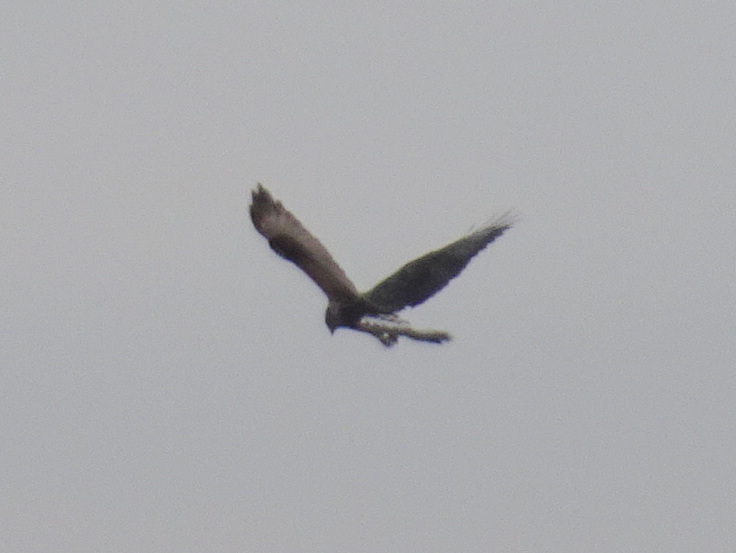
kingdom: Animalia
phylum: Chordata
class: Aves
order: Accipitriformes
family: Accipitridae
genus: Buteo
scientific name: Buteo lagopus
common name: Rough-legged buzzard
